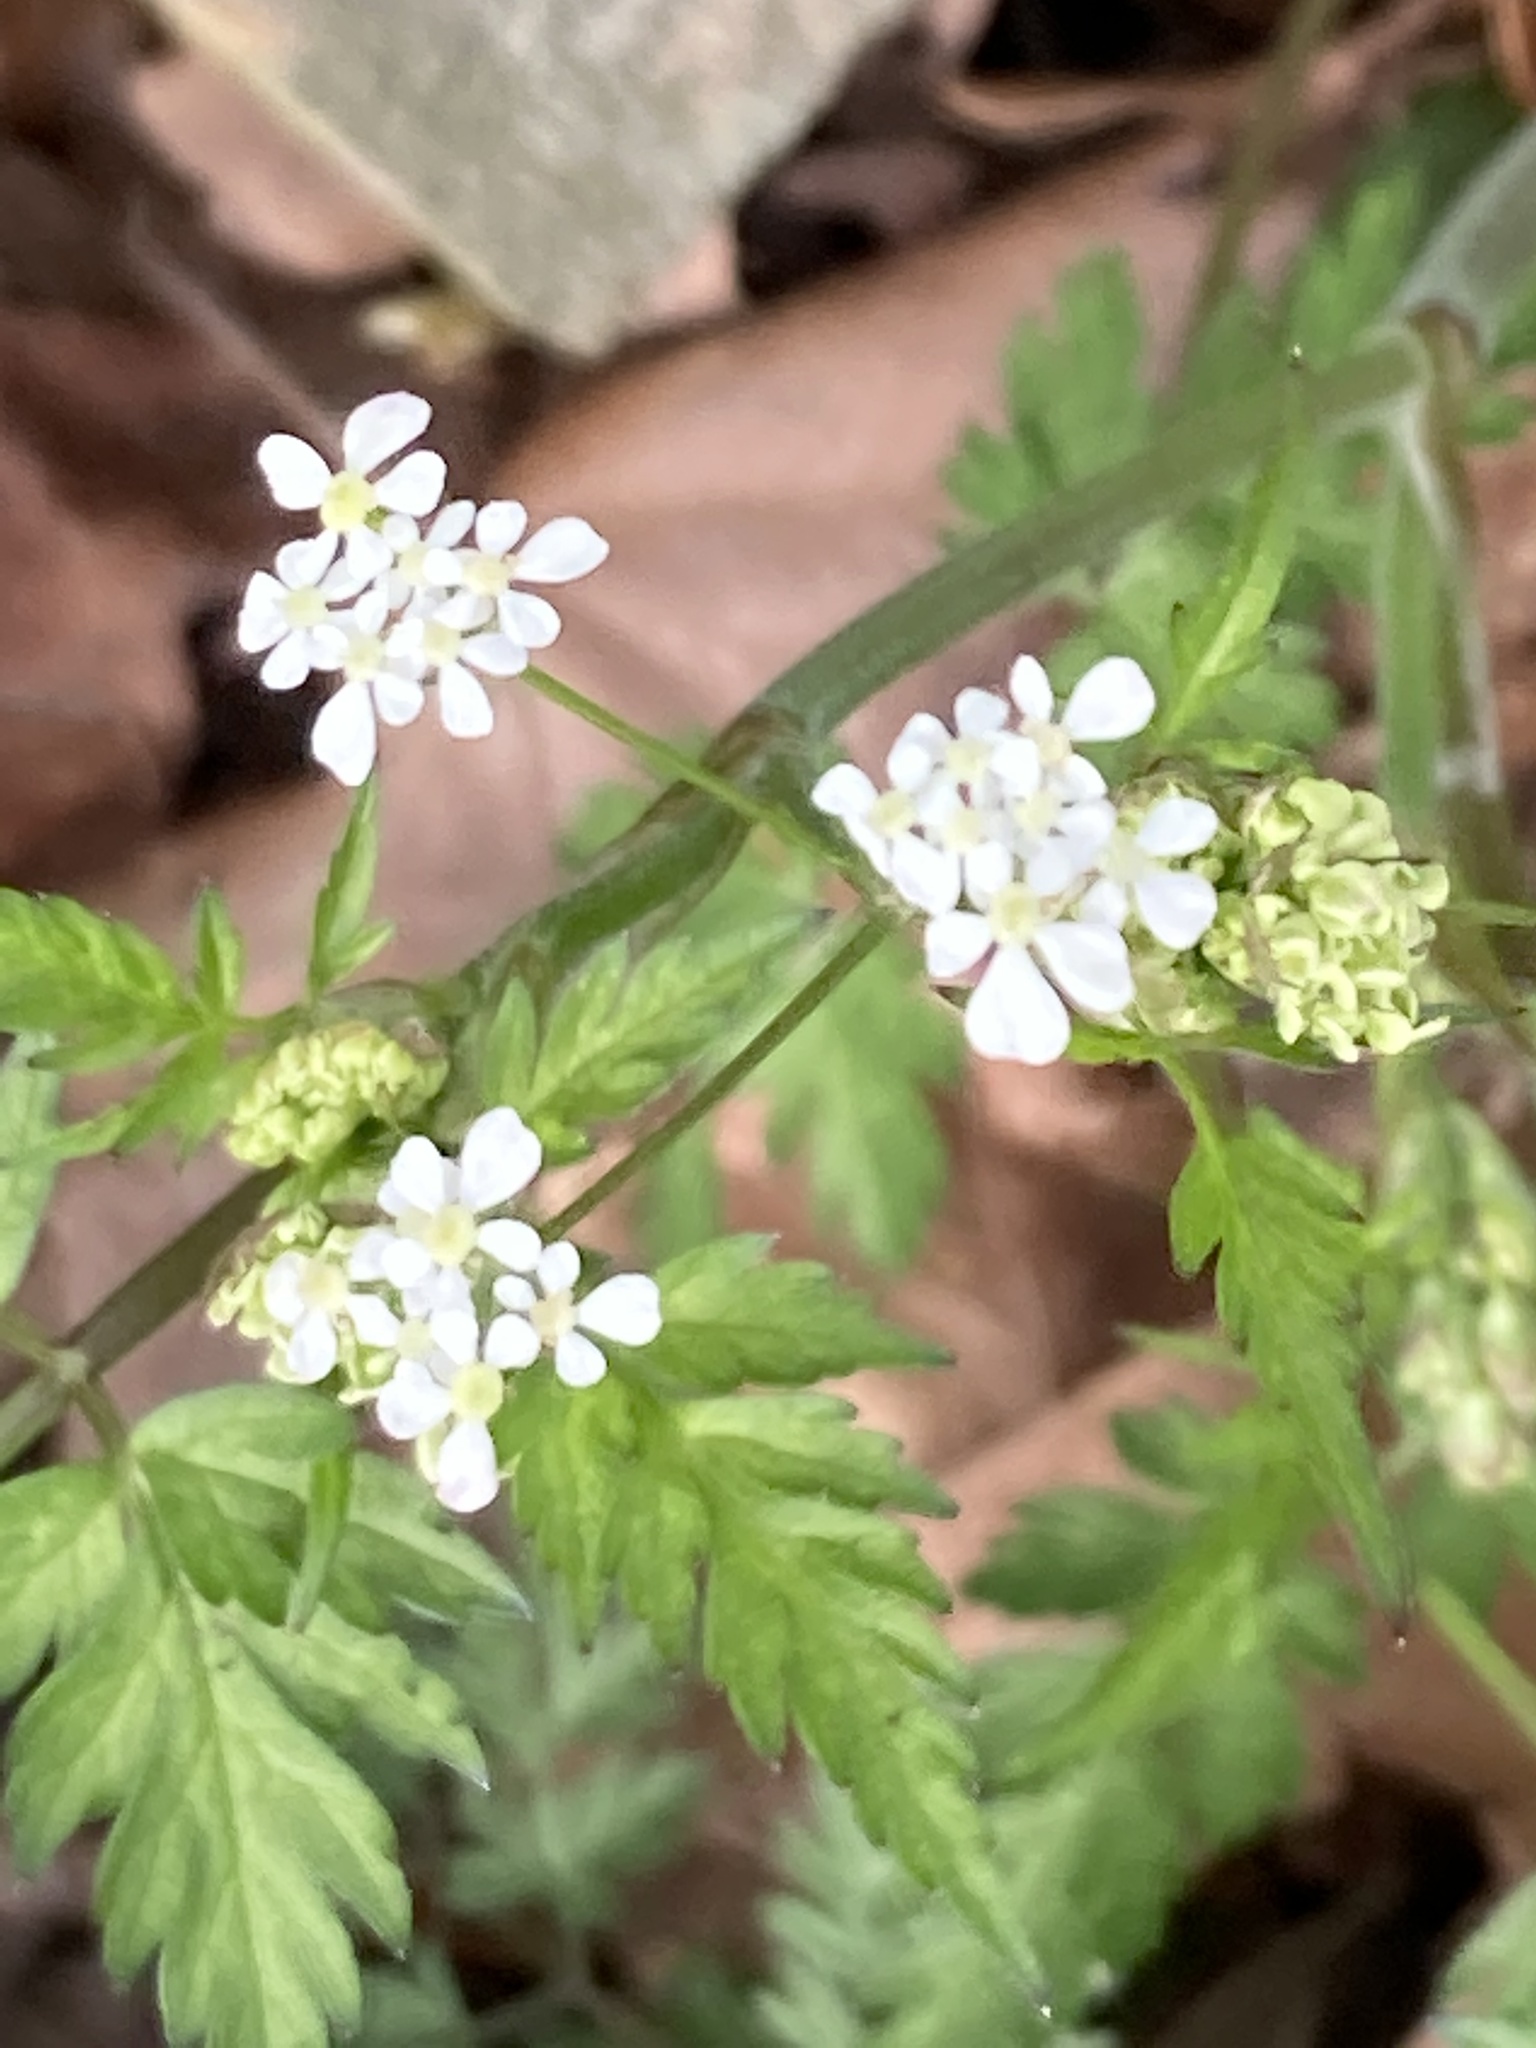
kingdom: Plantae
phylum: Tracheophyta
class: Magnoliopsida
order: Apiales
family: Apiaceae
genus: Anthriscus
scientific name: Anthriscus sylvestris
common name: Cow parsley
